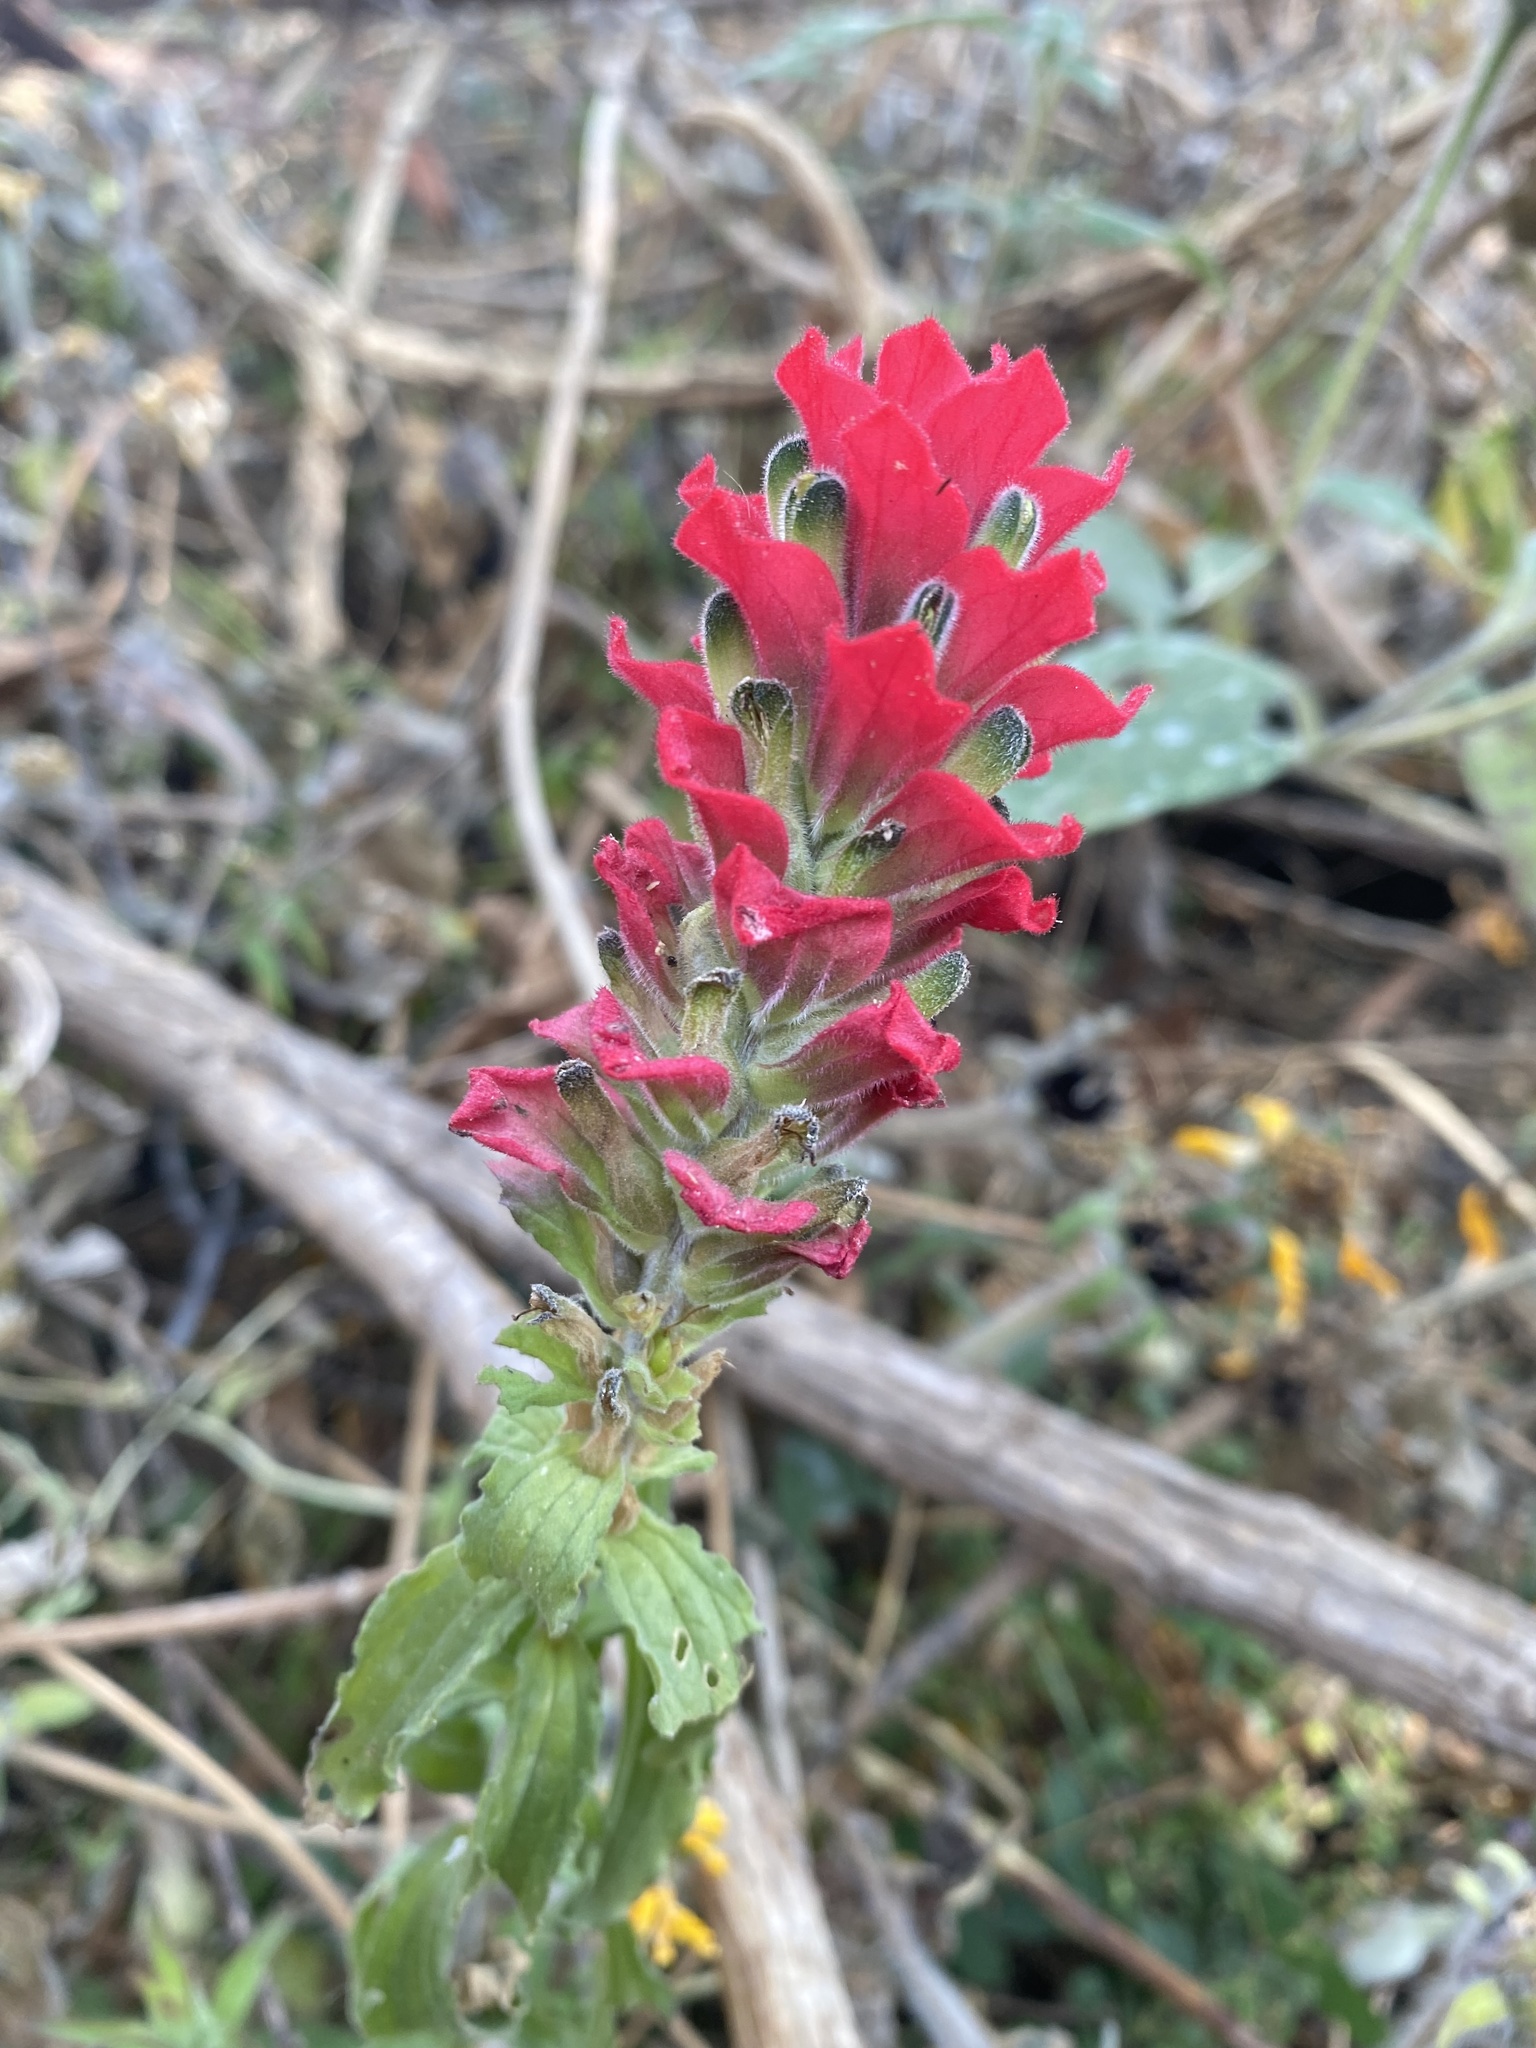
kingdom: Plantae
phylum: Tracheophyta
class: Magnoliopsida
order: Lamiales
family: Orobanchaceae
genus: Castilleja
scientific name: Castilleja arvensis
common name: Indian paintbrush
